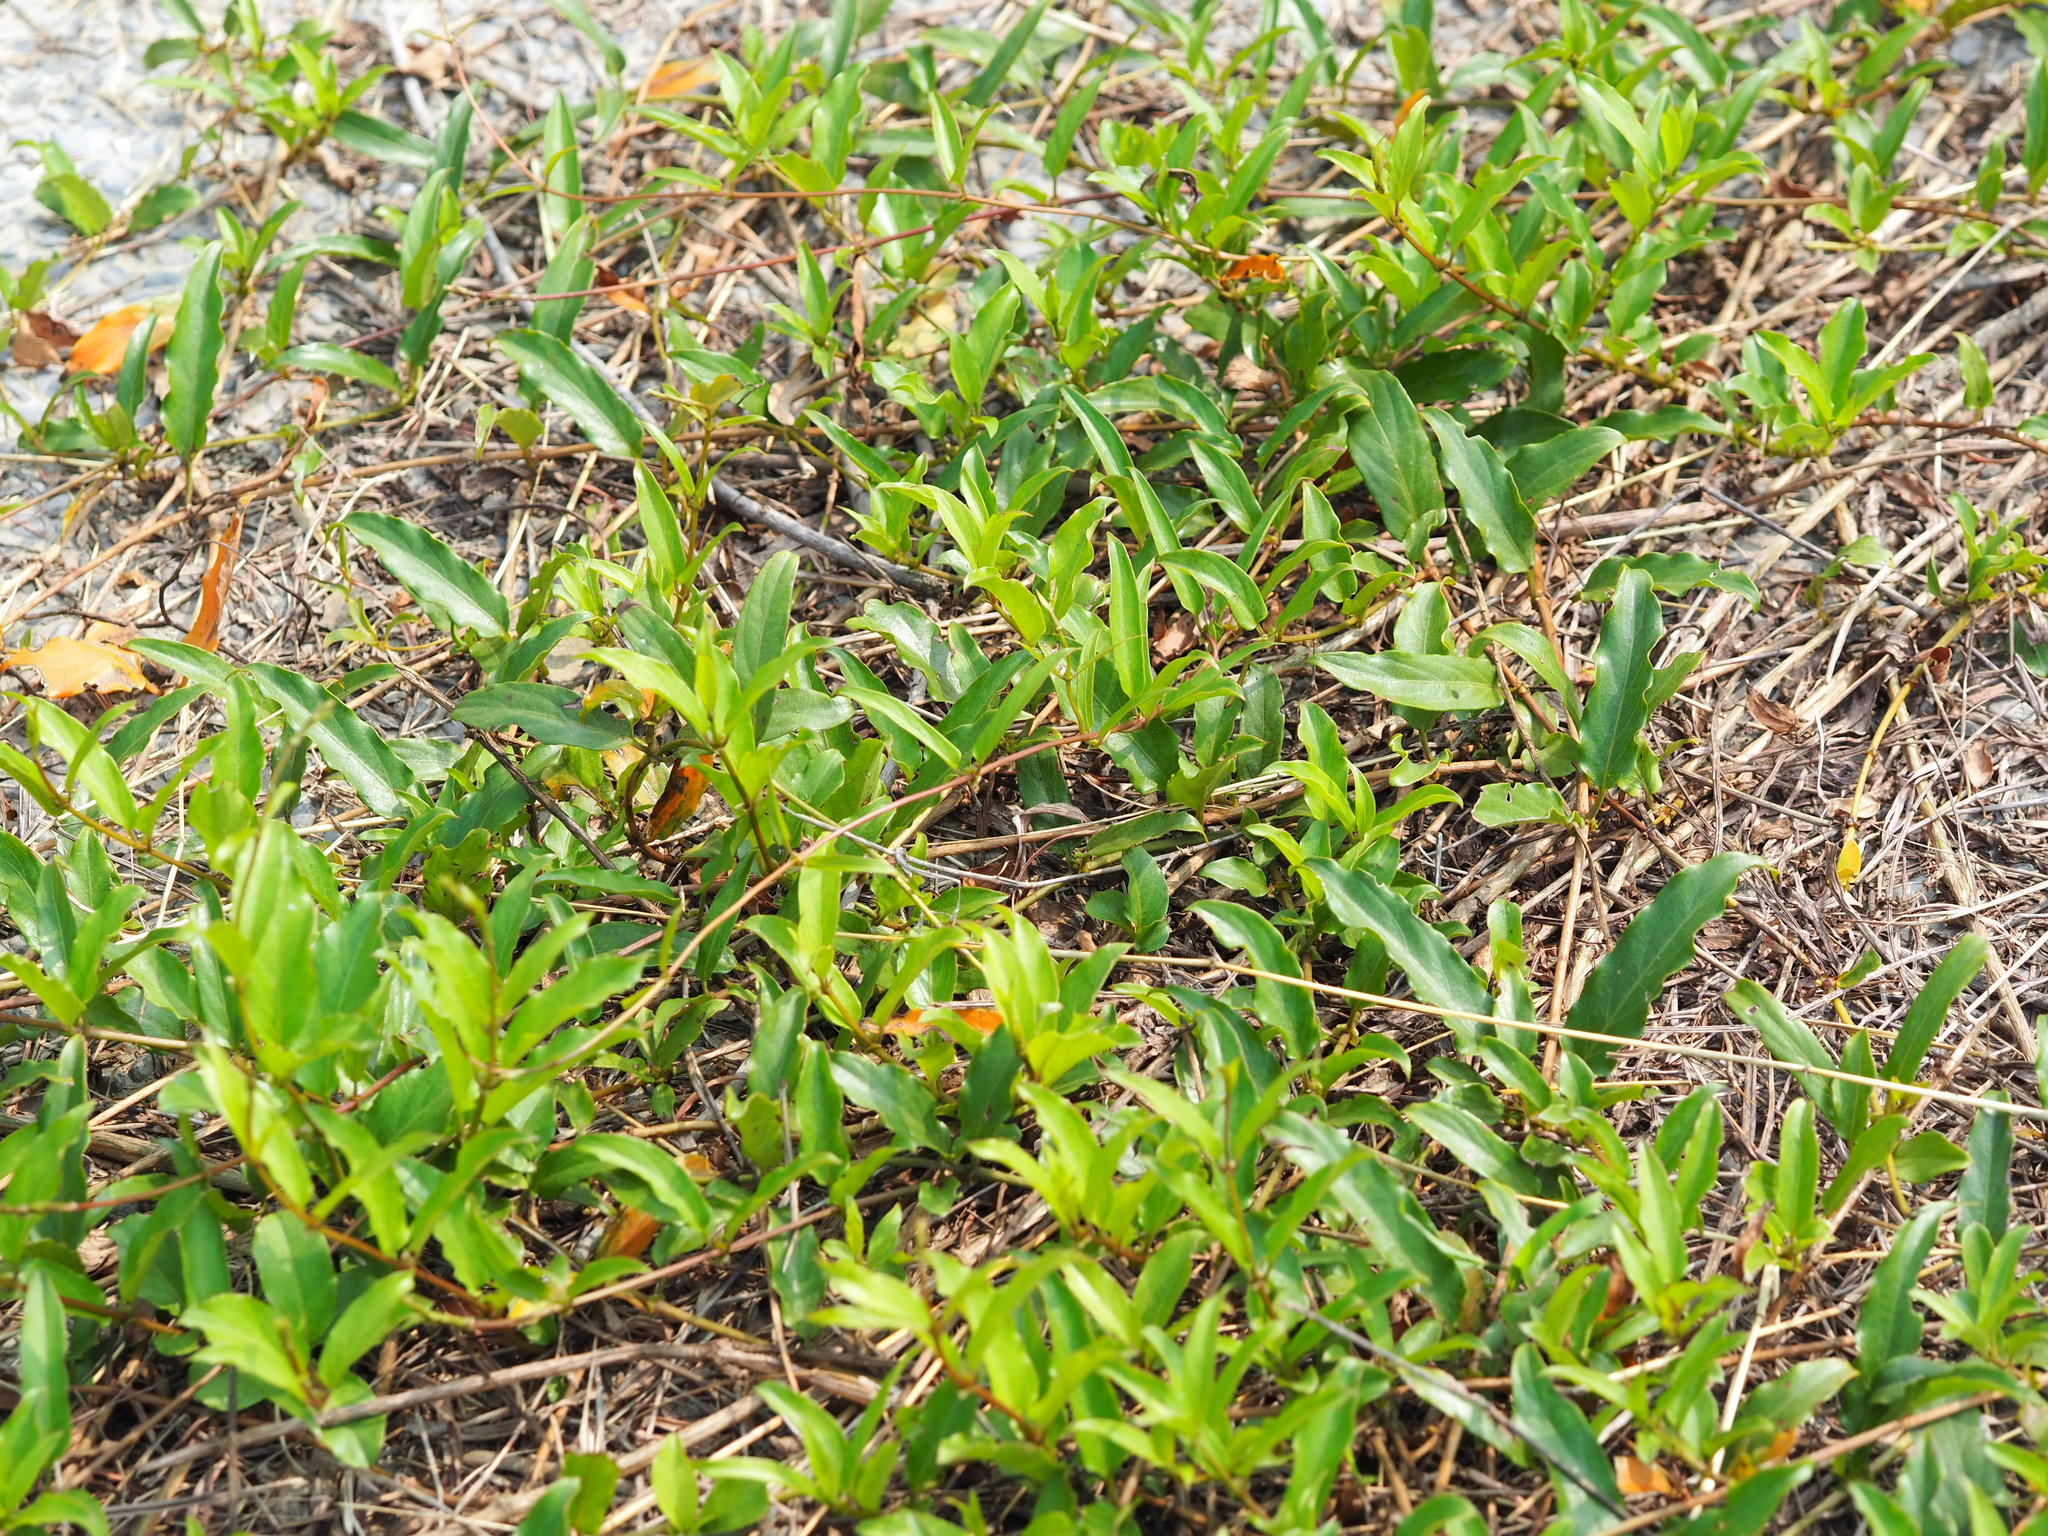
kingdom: Plantae
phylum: Tracheophyta
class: Magnoliopsida
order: Gentianales
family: Rubiaceae
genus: Paederia
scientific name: Paederia foetida
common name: Stinkvine
